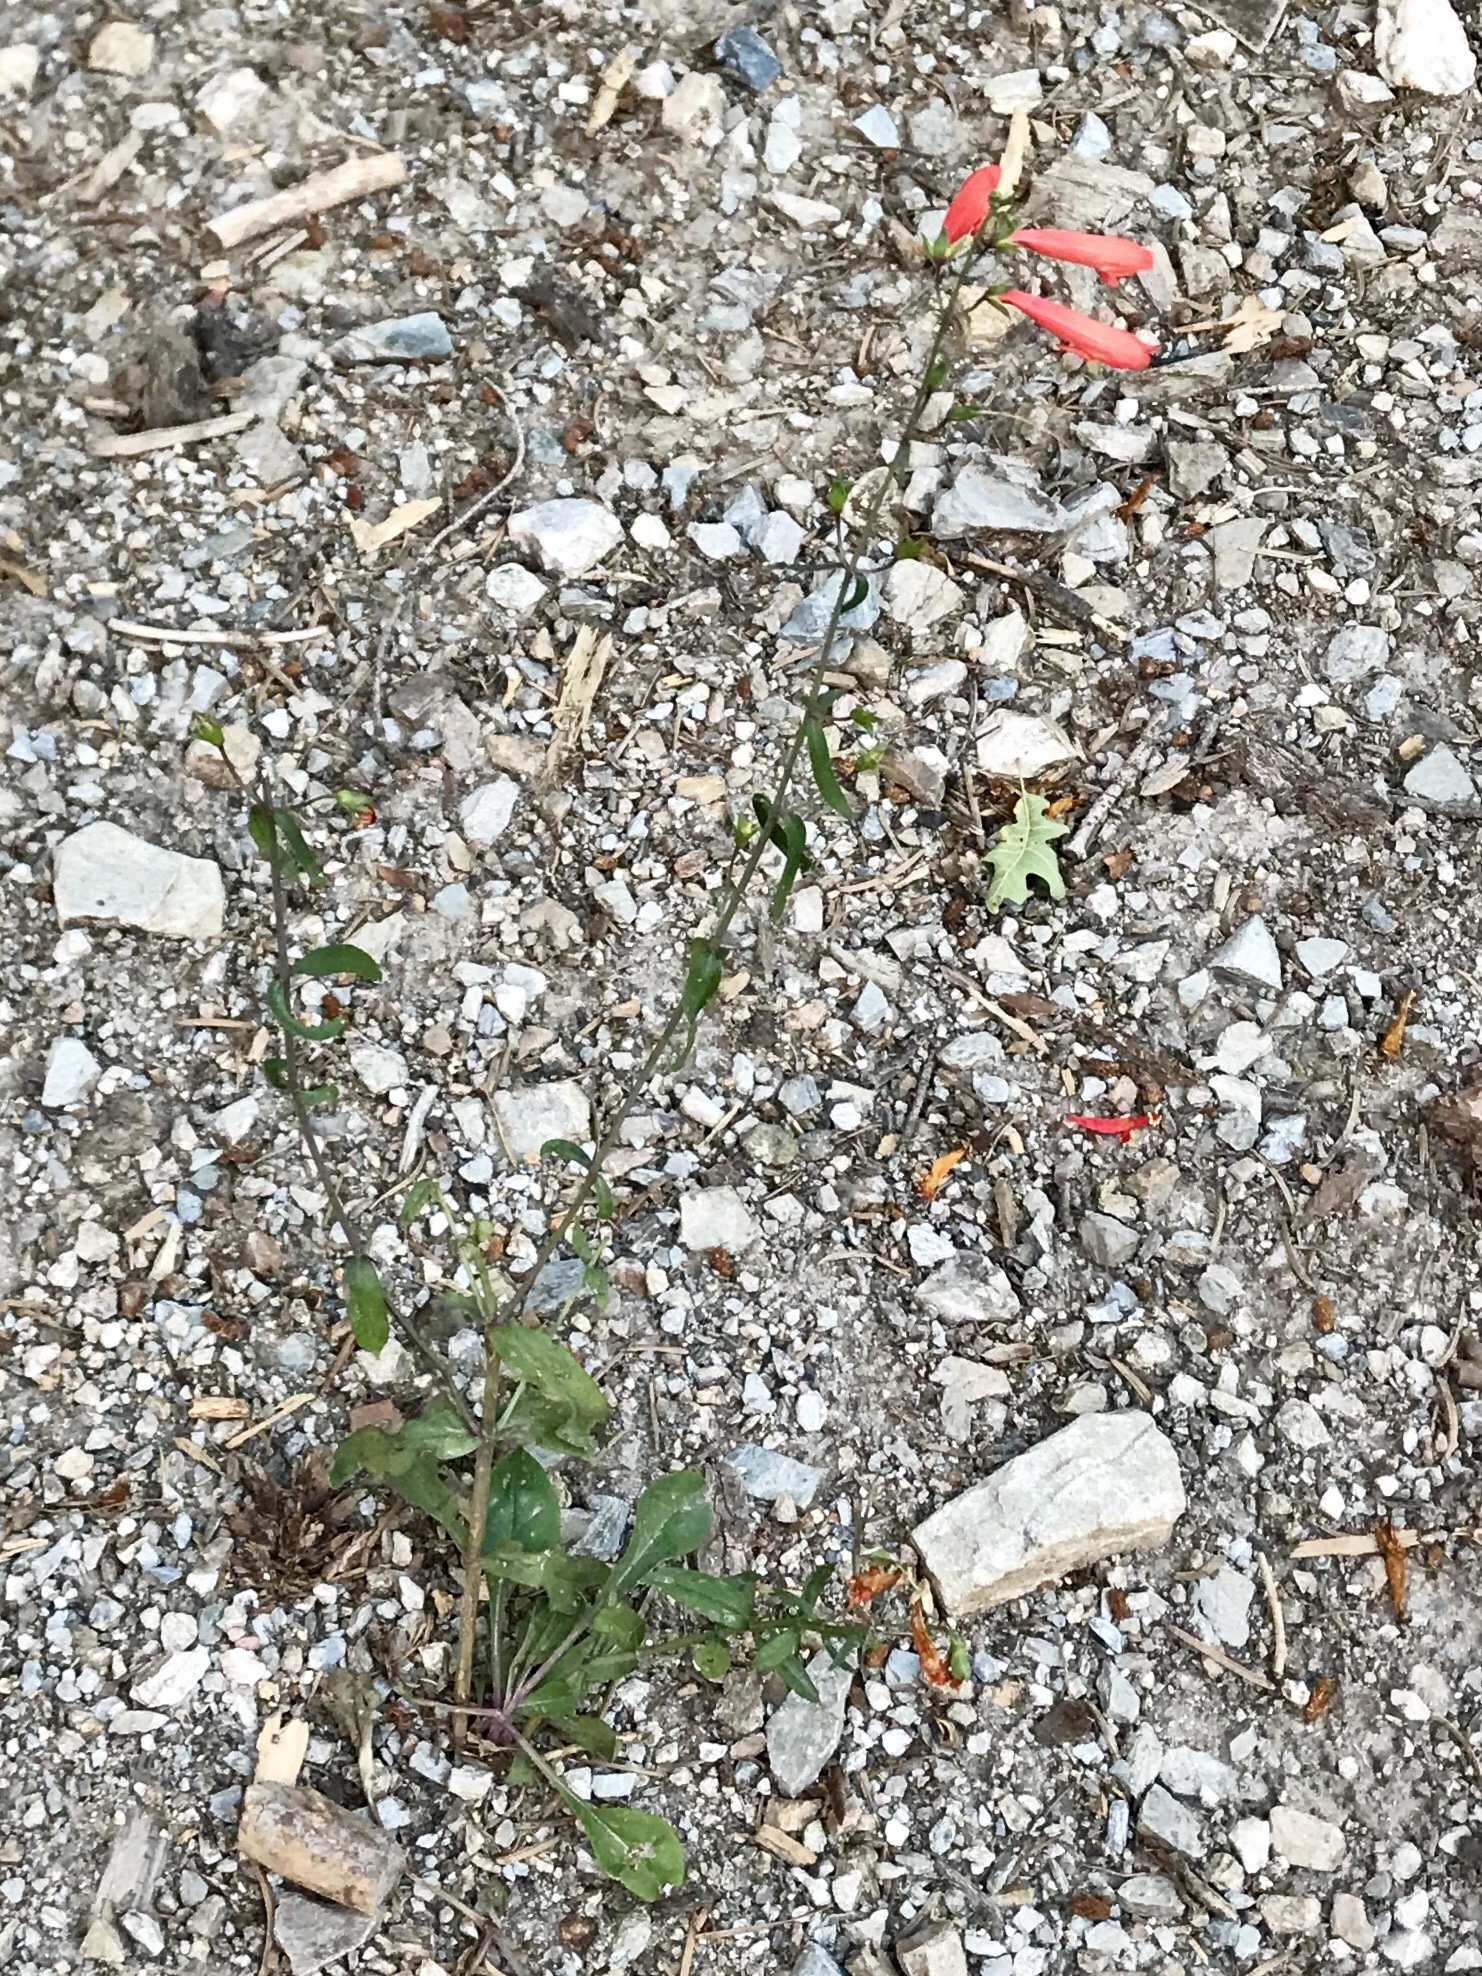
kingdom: Plantae
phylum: Tracheophyta
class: Magnoliopsida
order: Lamiales
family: Plantaginaceae
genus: Penstemon
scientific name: Penstemon barbatus
